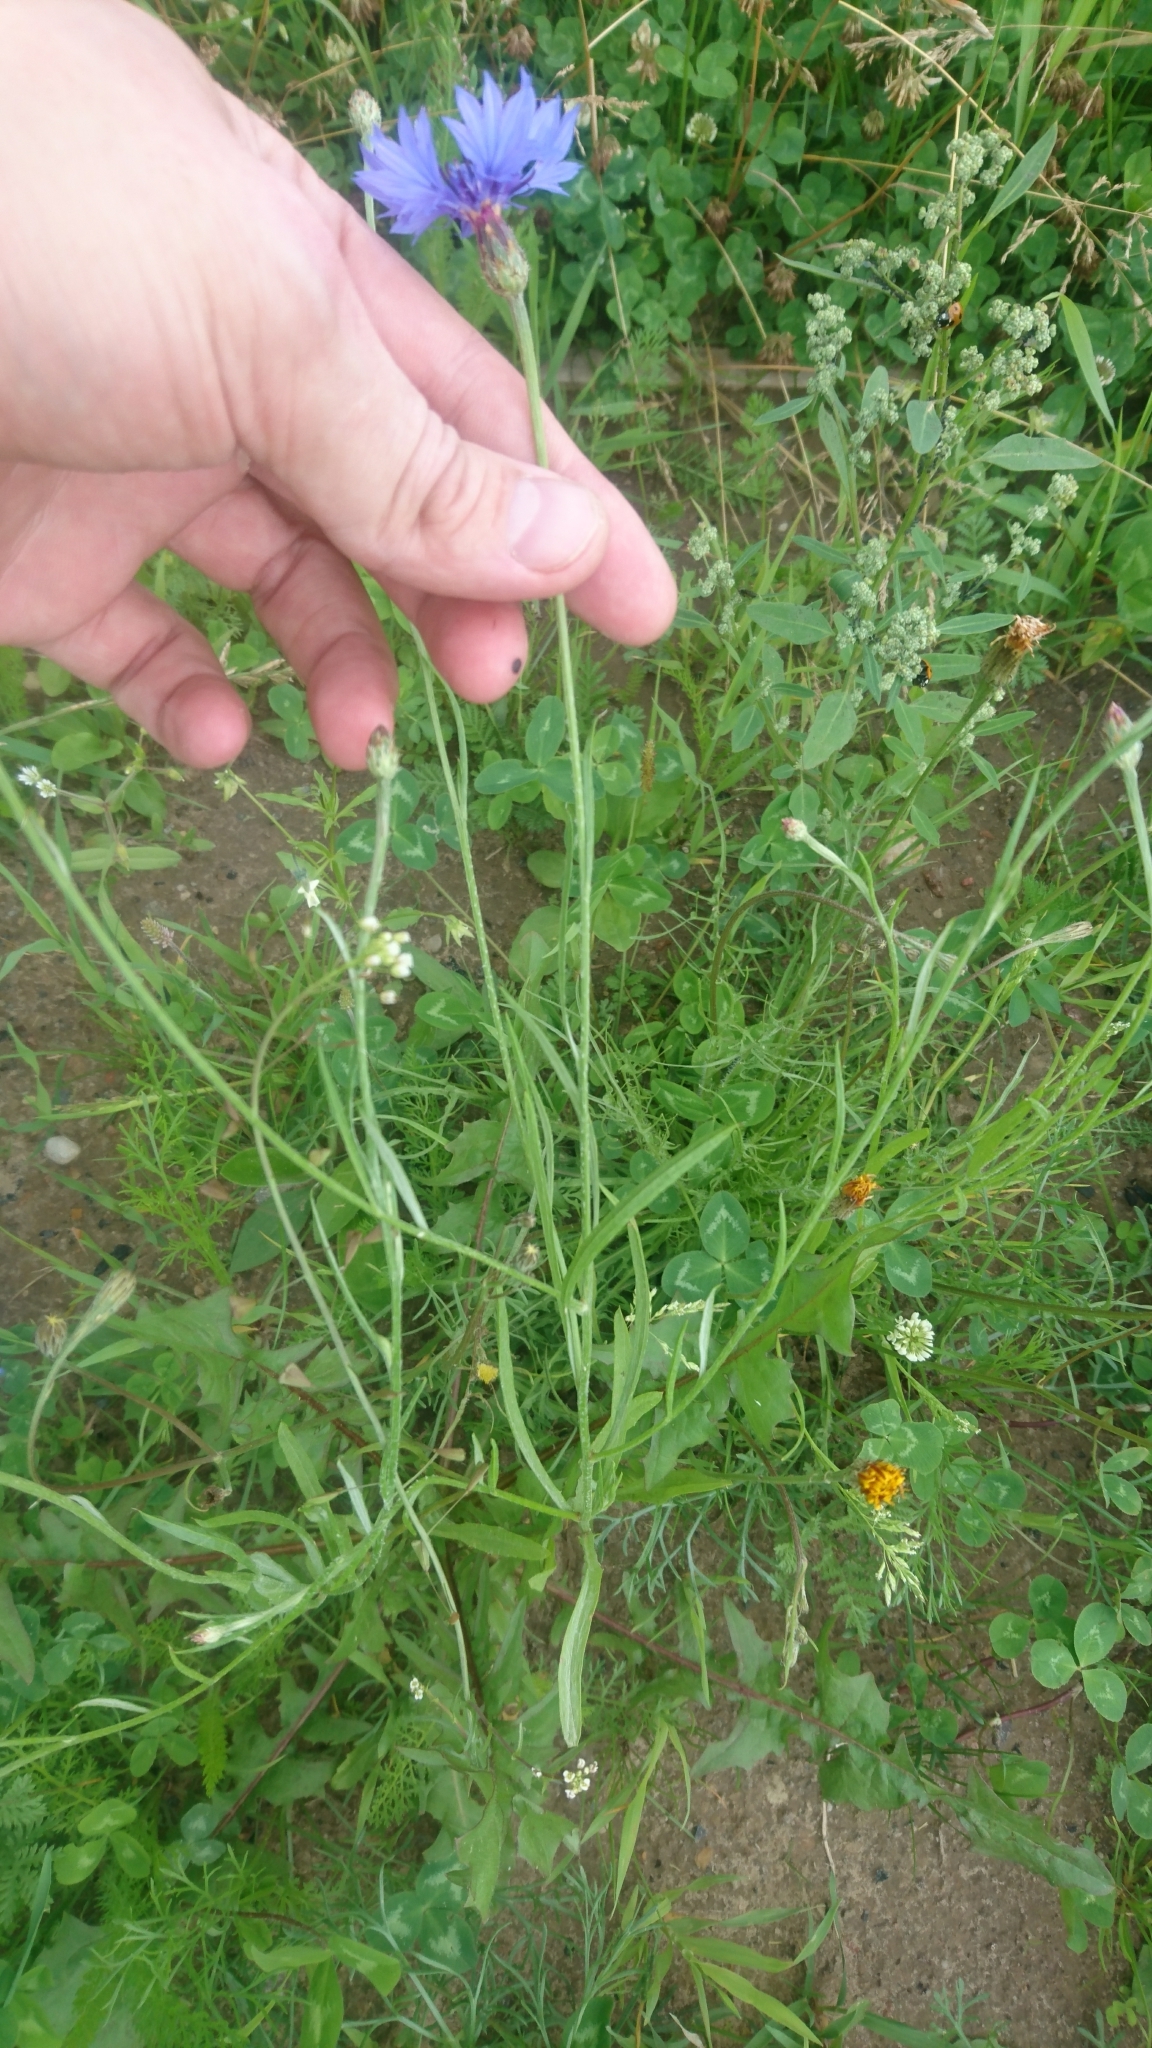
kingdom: Plantae
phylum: Tracheophyta
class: Magnoliopsida
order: Asterales
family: Asteraceae
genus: Centaurea
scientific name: Centaurea cyanus
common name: Cornflower
